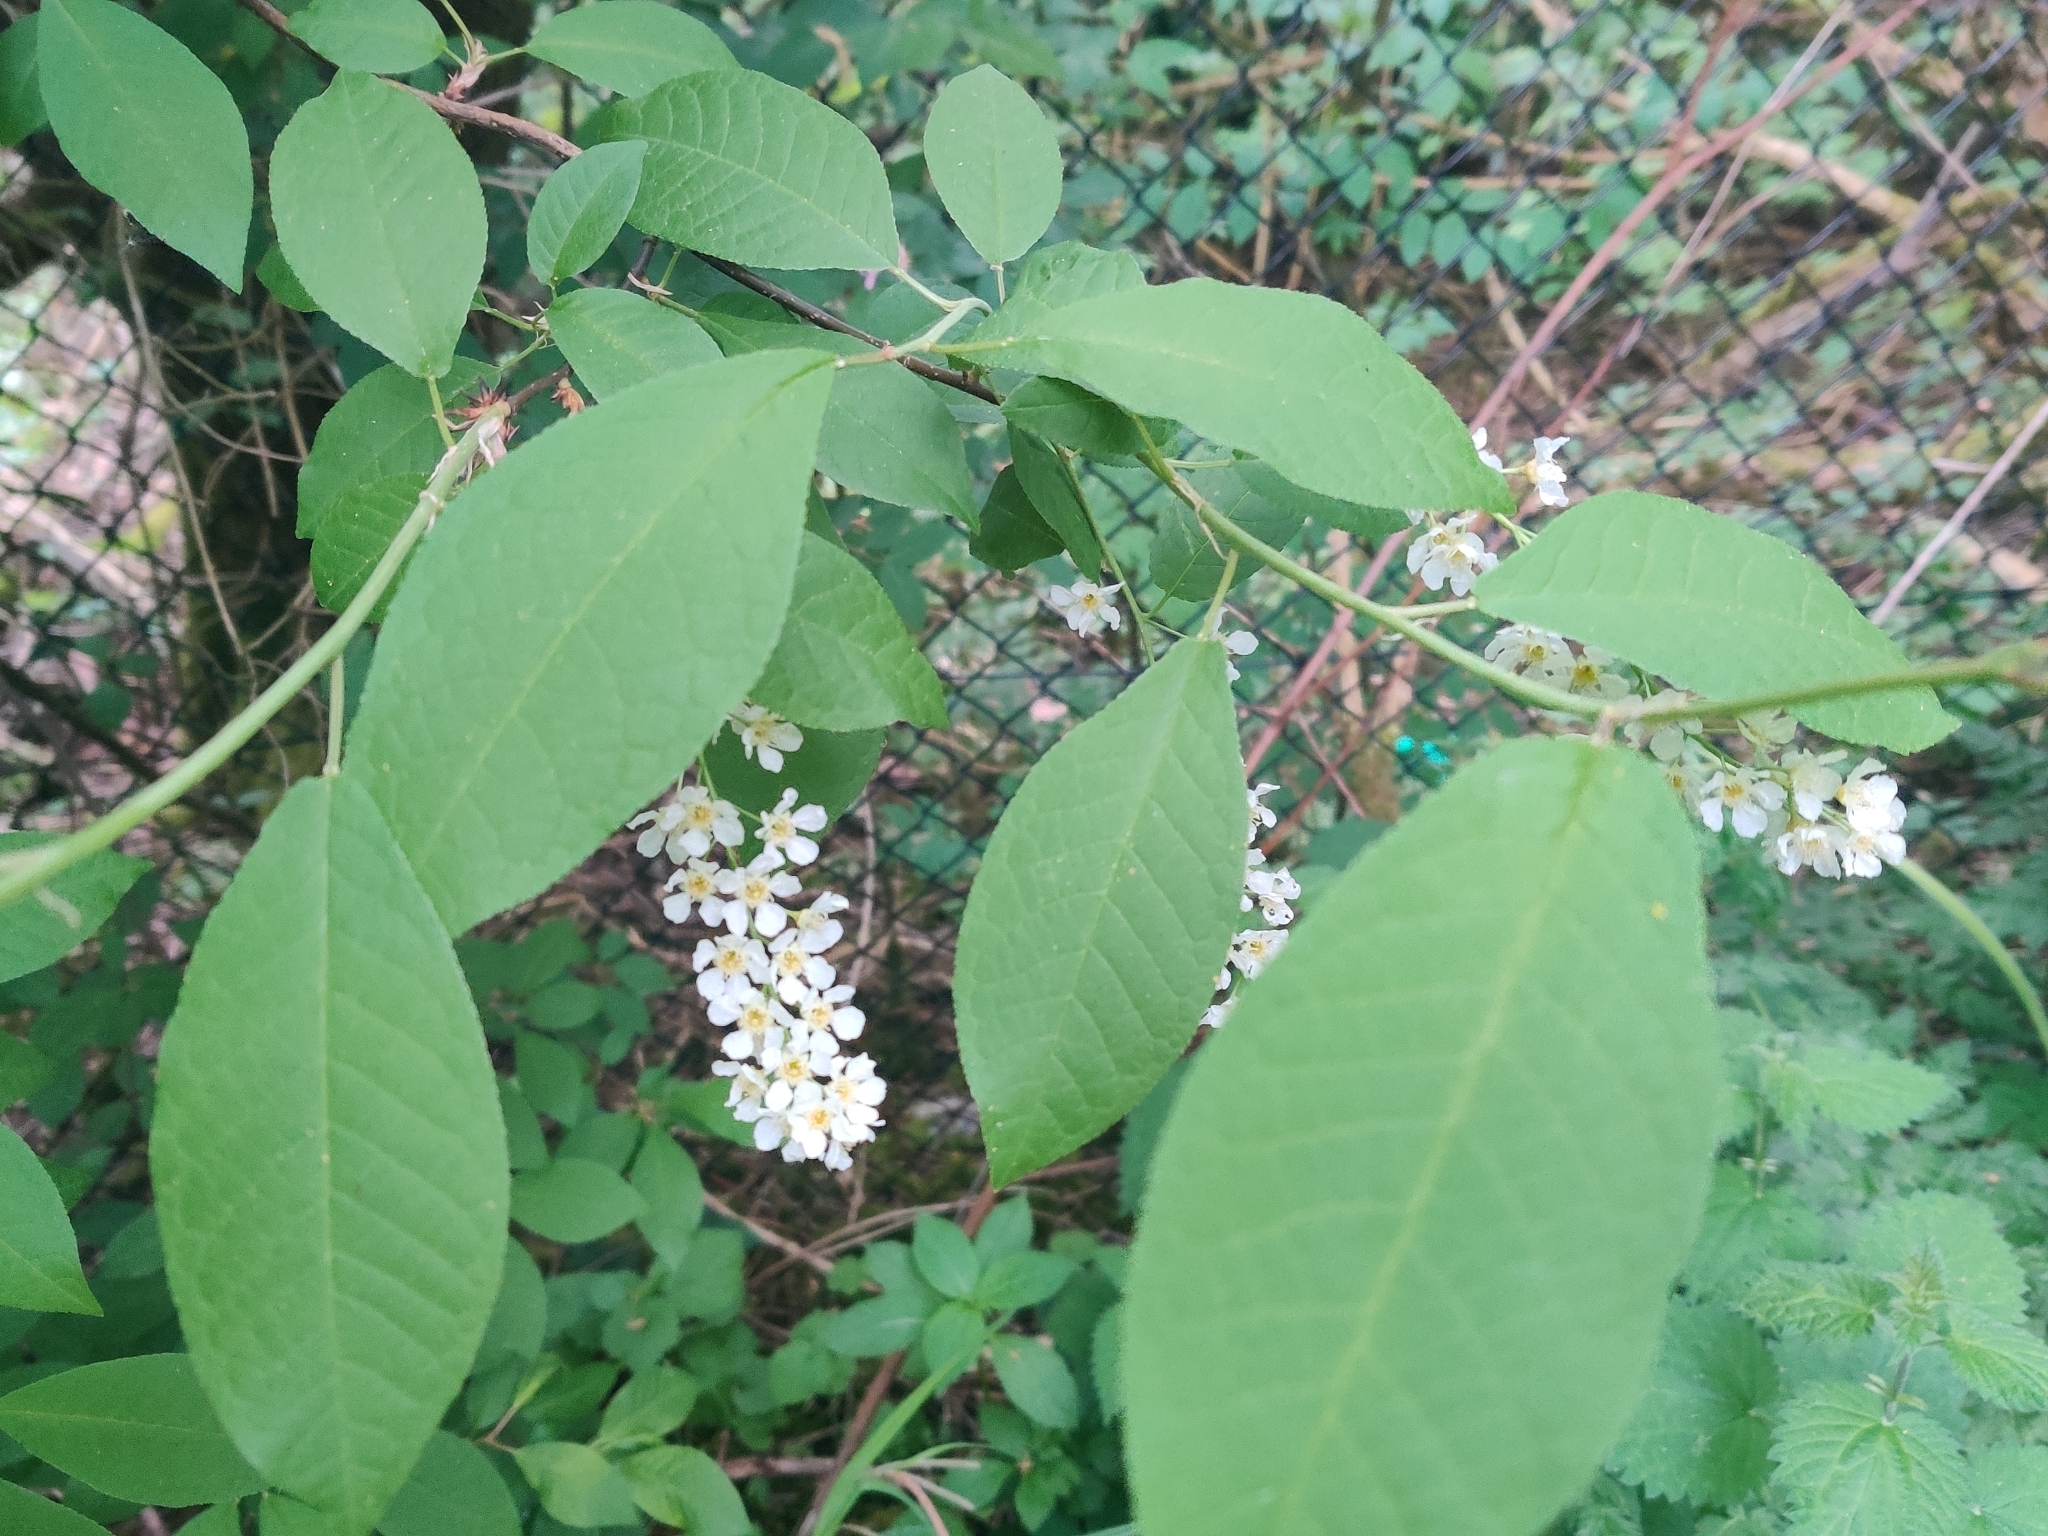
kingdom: Plantae
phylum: Tracheophyta
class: Magnoliopsida
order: Rosales
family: Rosaceae
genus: Prunus
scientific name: Prunus padus
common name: Bird cherry
